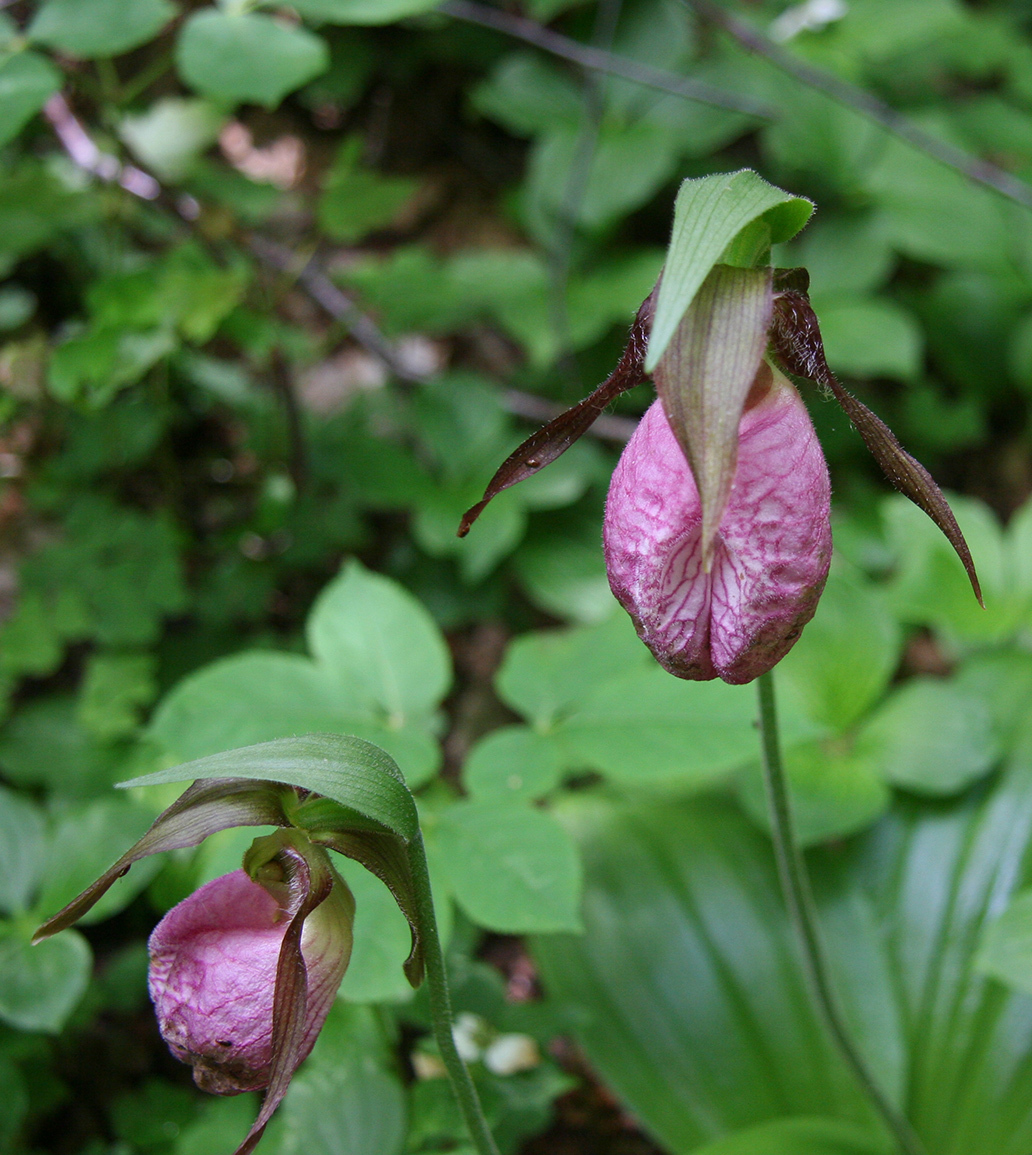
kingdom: Plantae
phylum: Tracheophyta
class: Liliopsida
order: Asparagales
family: Orchidaceae
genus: Cypripedium
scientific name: Cypripedium acaule
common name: Pink lady's-slipper
